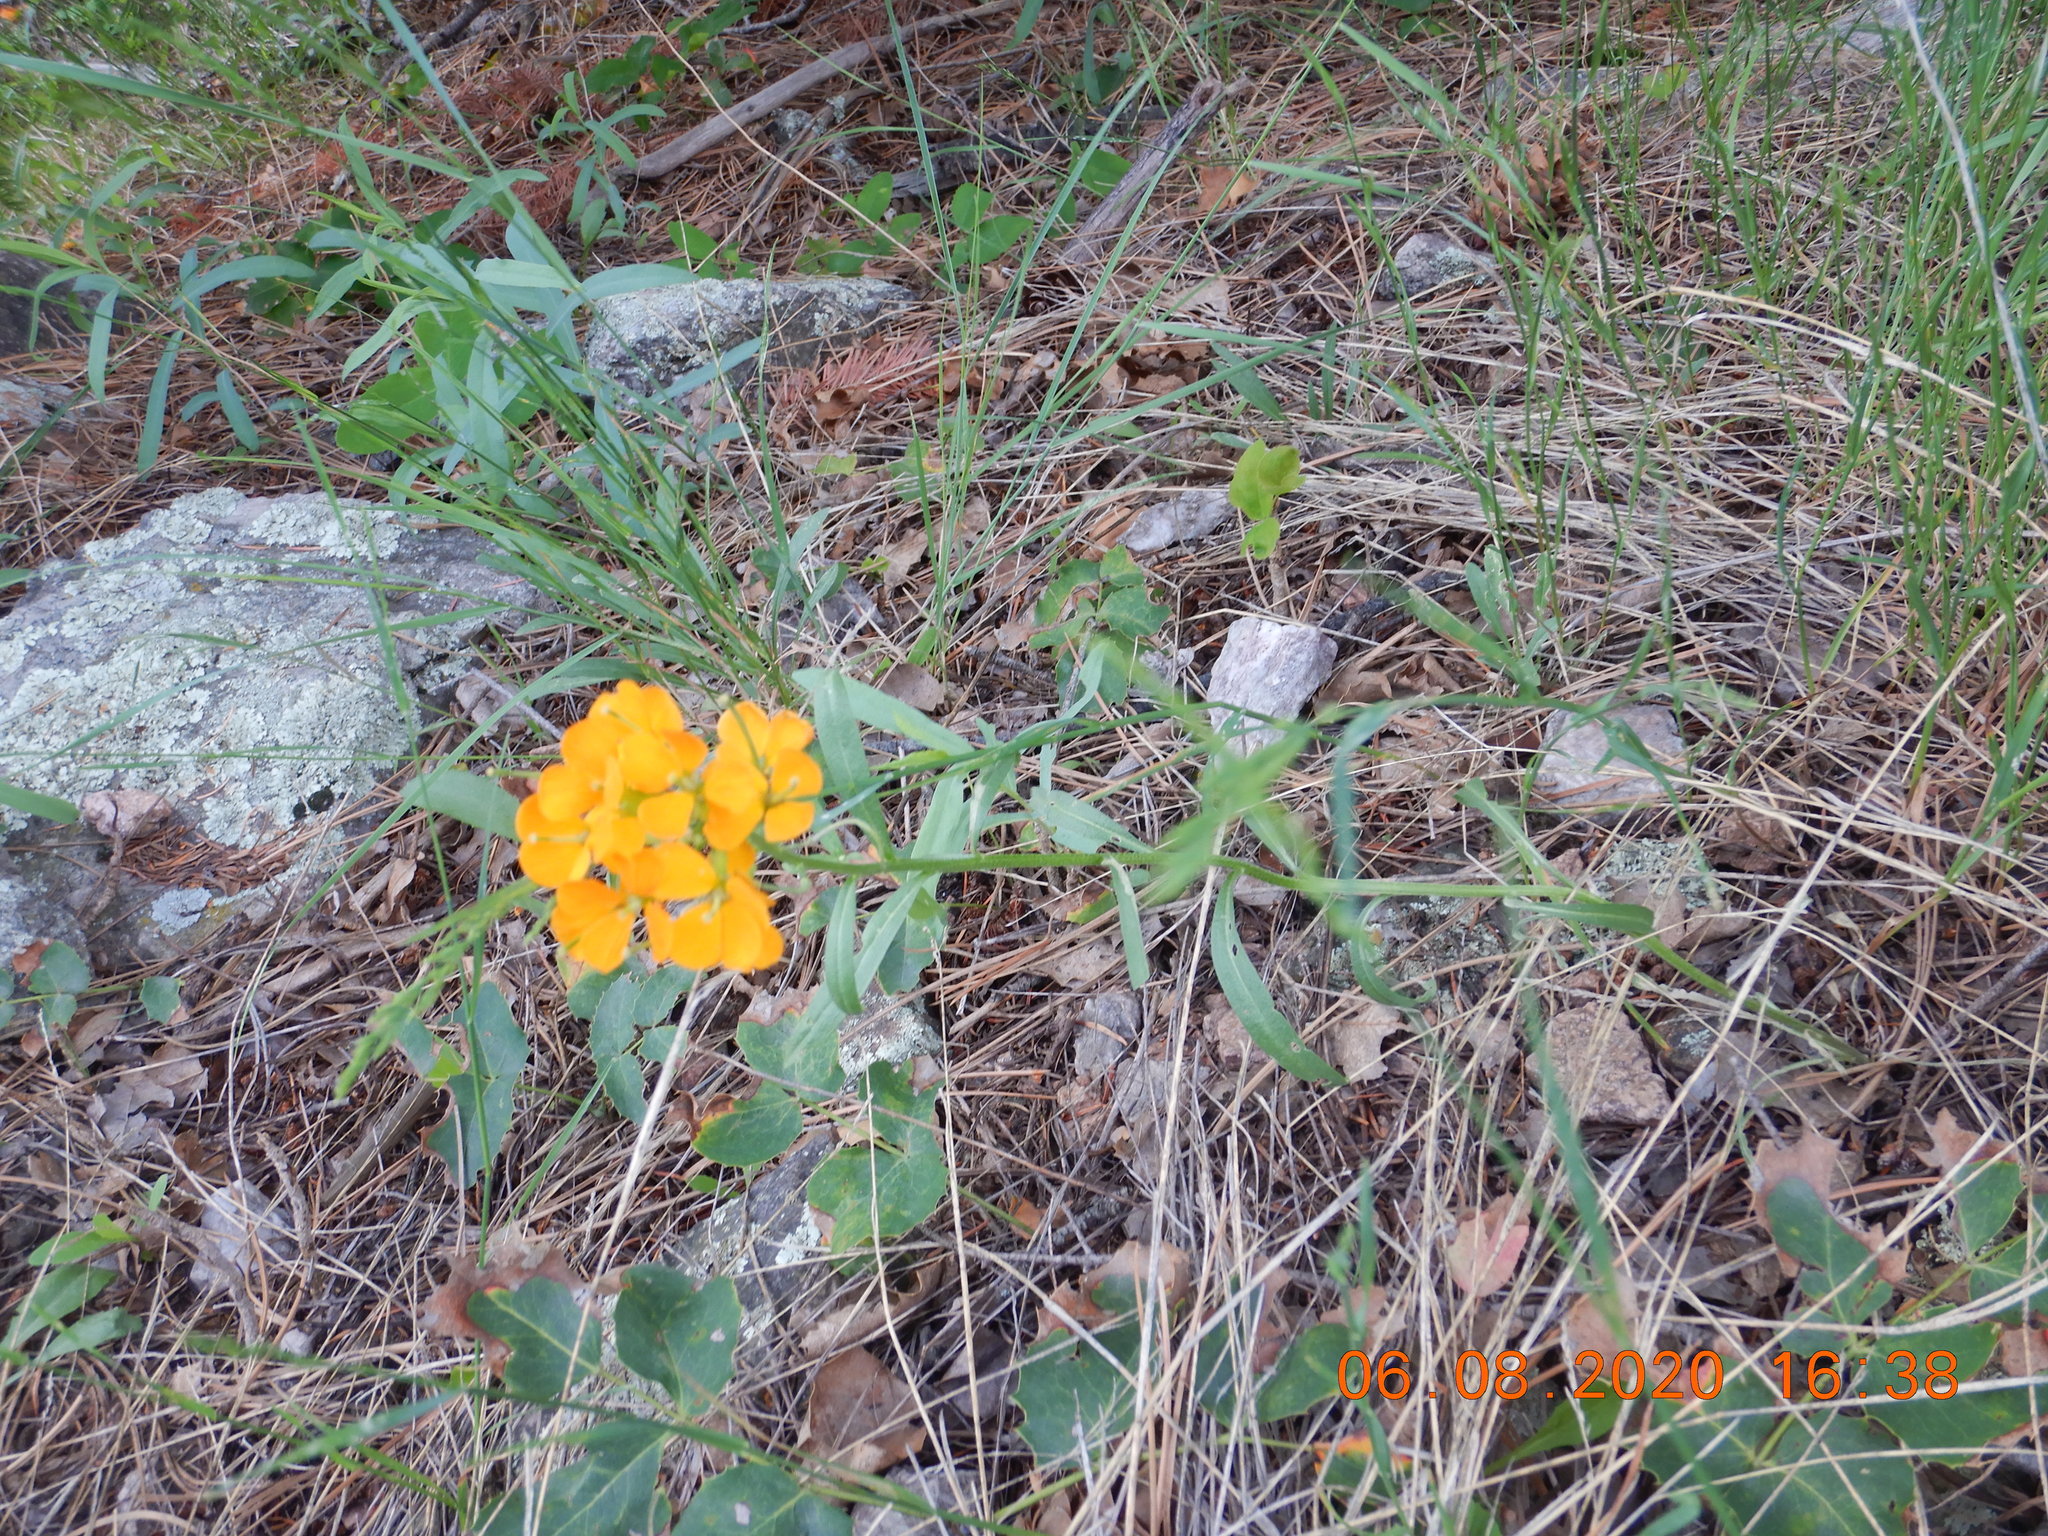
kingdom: Plantae
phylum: Tracheophyta
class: Magnoliopsida
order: Brassicales
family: Brassicaceae
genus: Erysimum
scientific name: Erysimum capitatum
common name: Western wallflower
